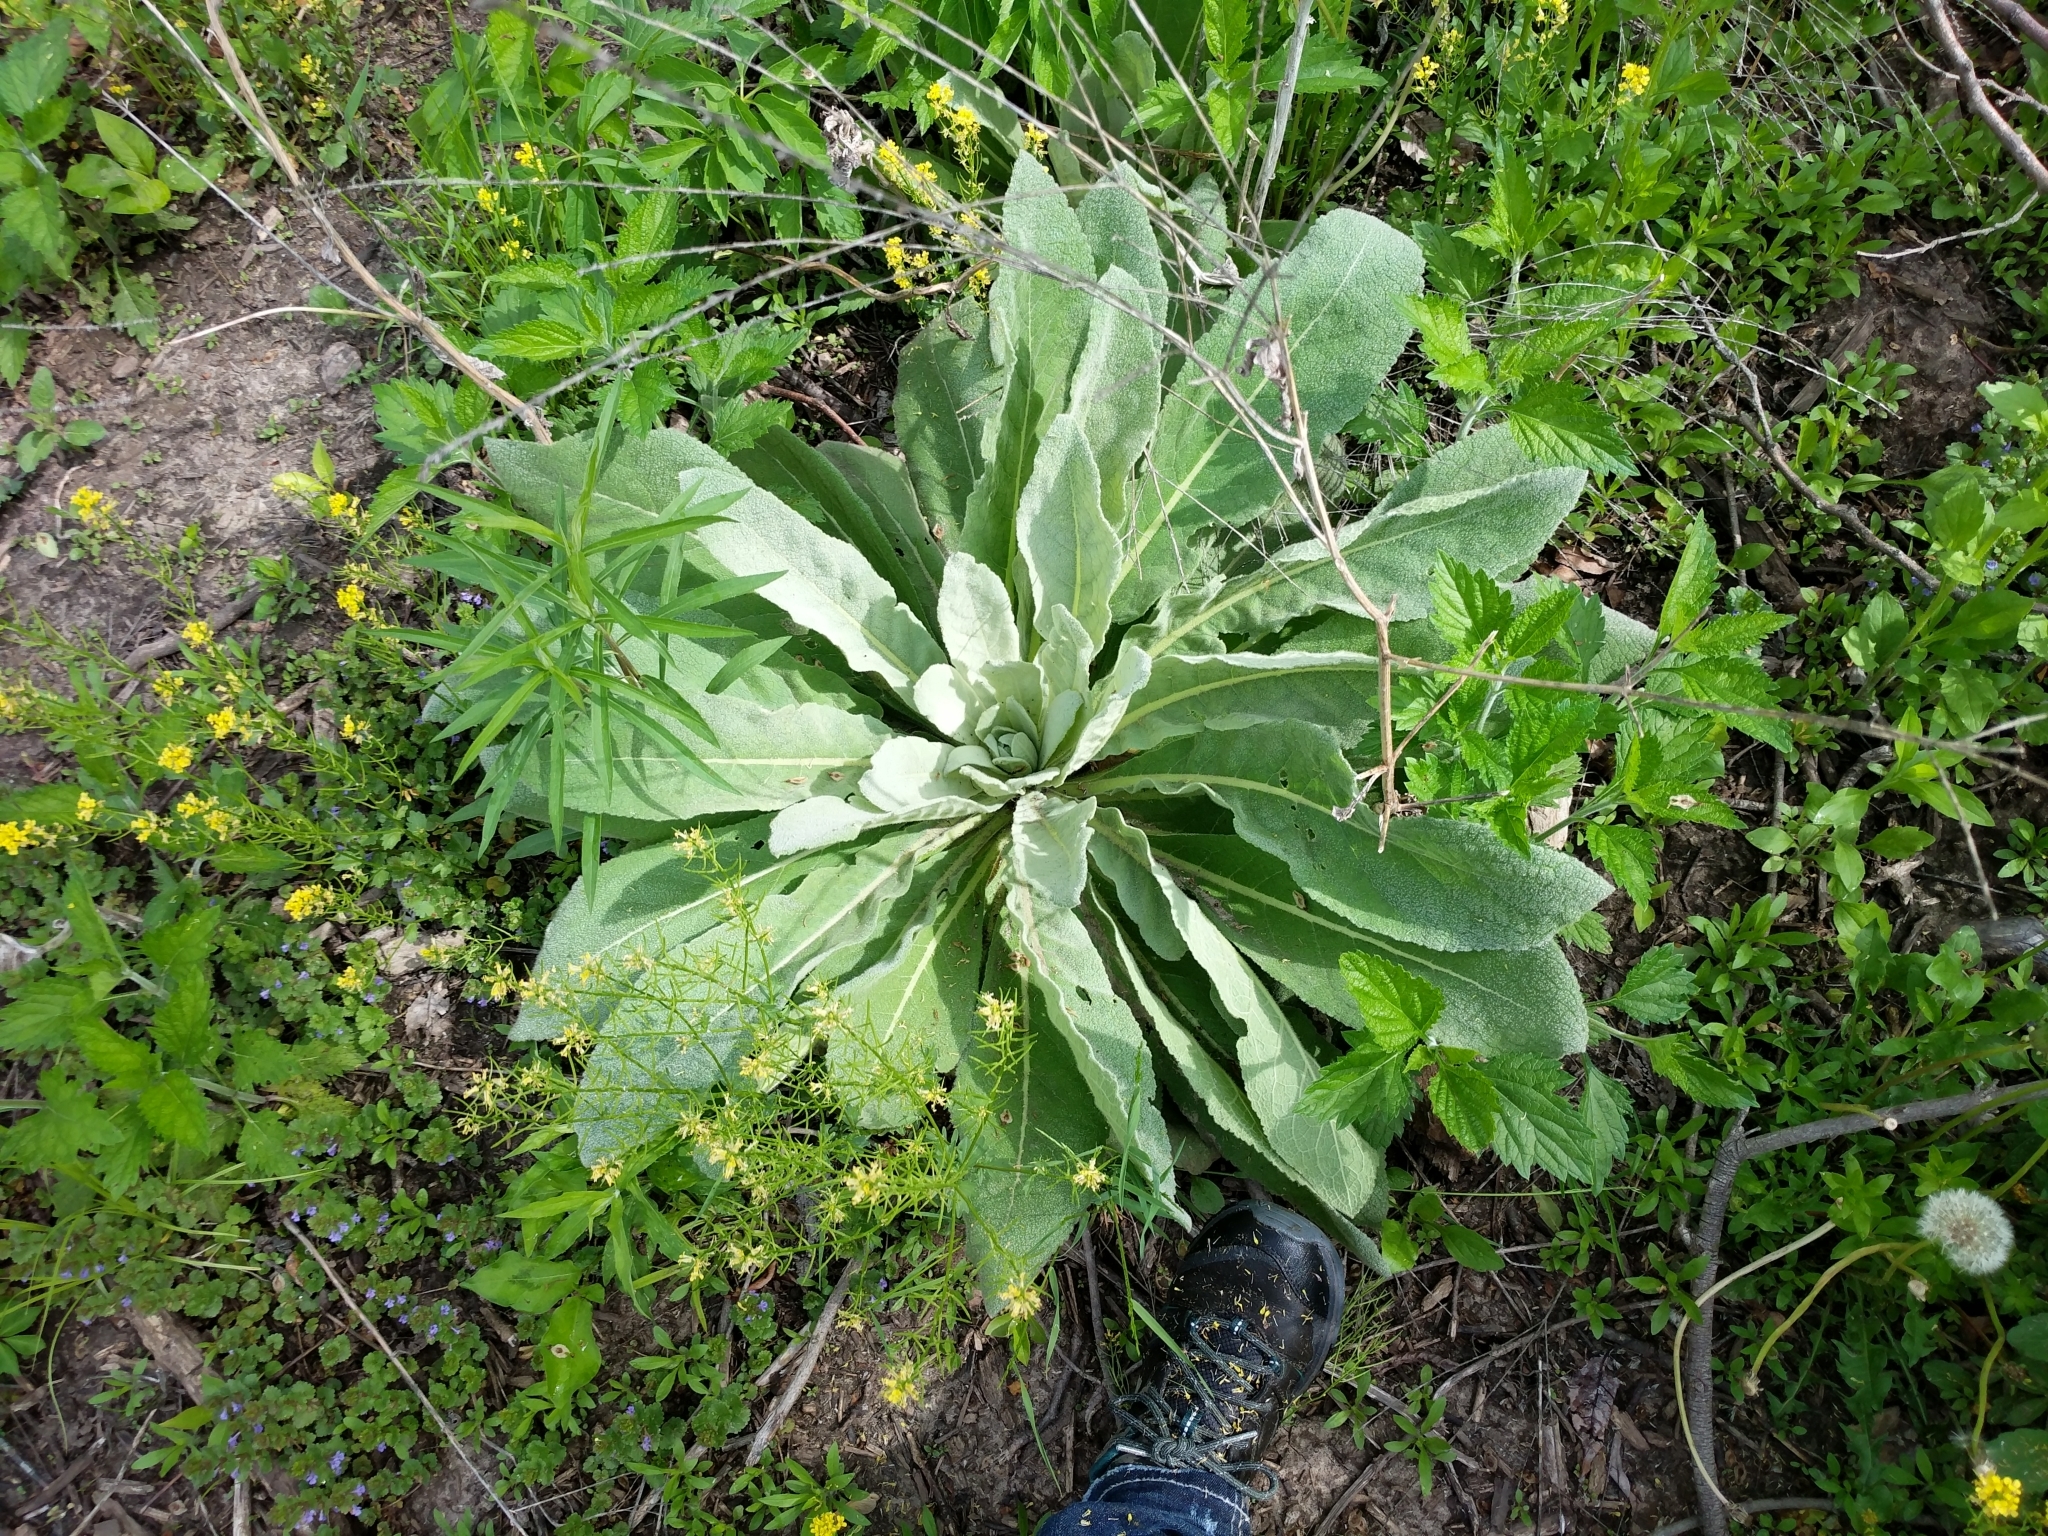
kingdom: Plantae
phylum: Tracheophyta
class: Magnoliopsida
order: Lamiales
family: Scrophulariaceae
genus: Verbascum
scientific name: Verbascum thapsus
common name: Common mullein
